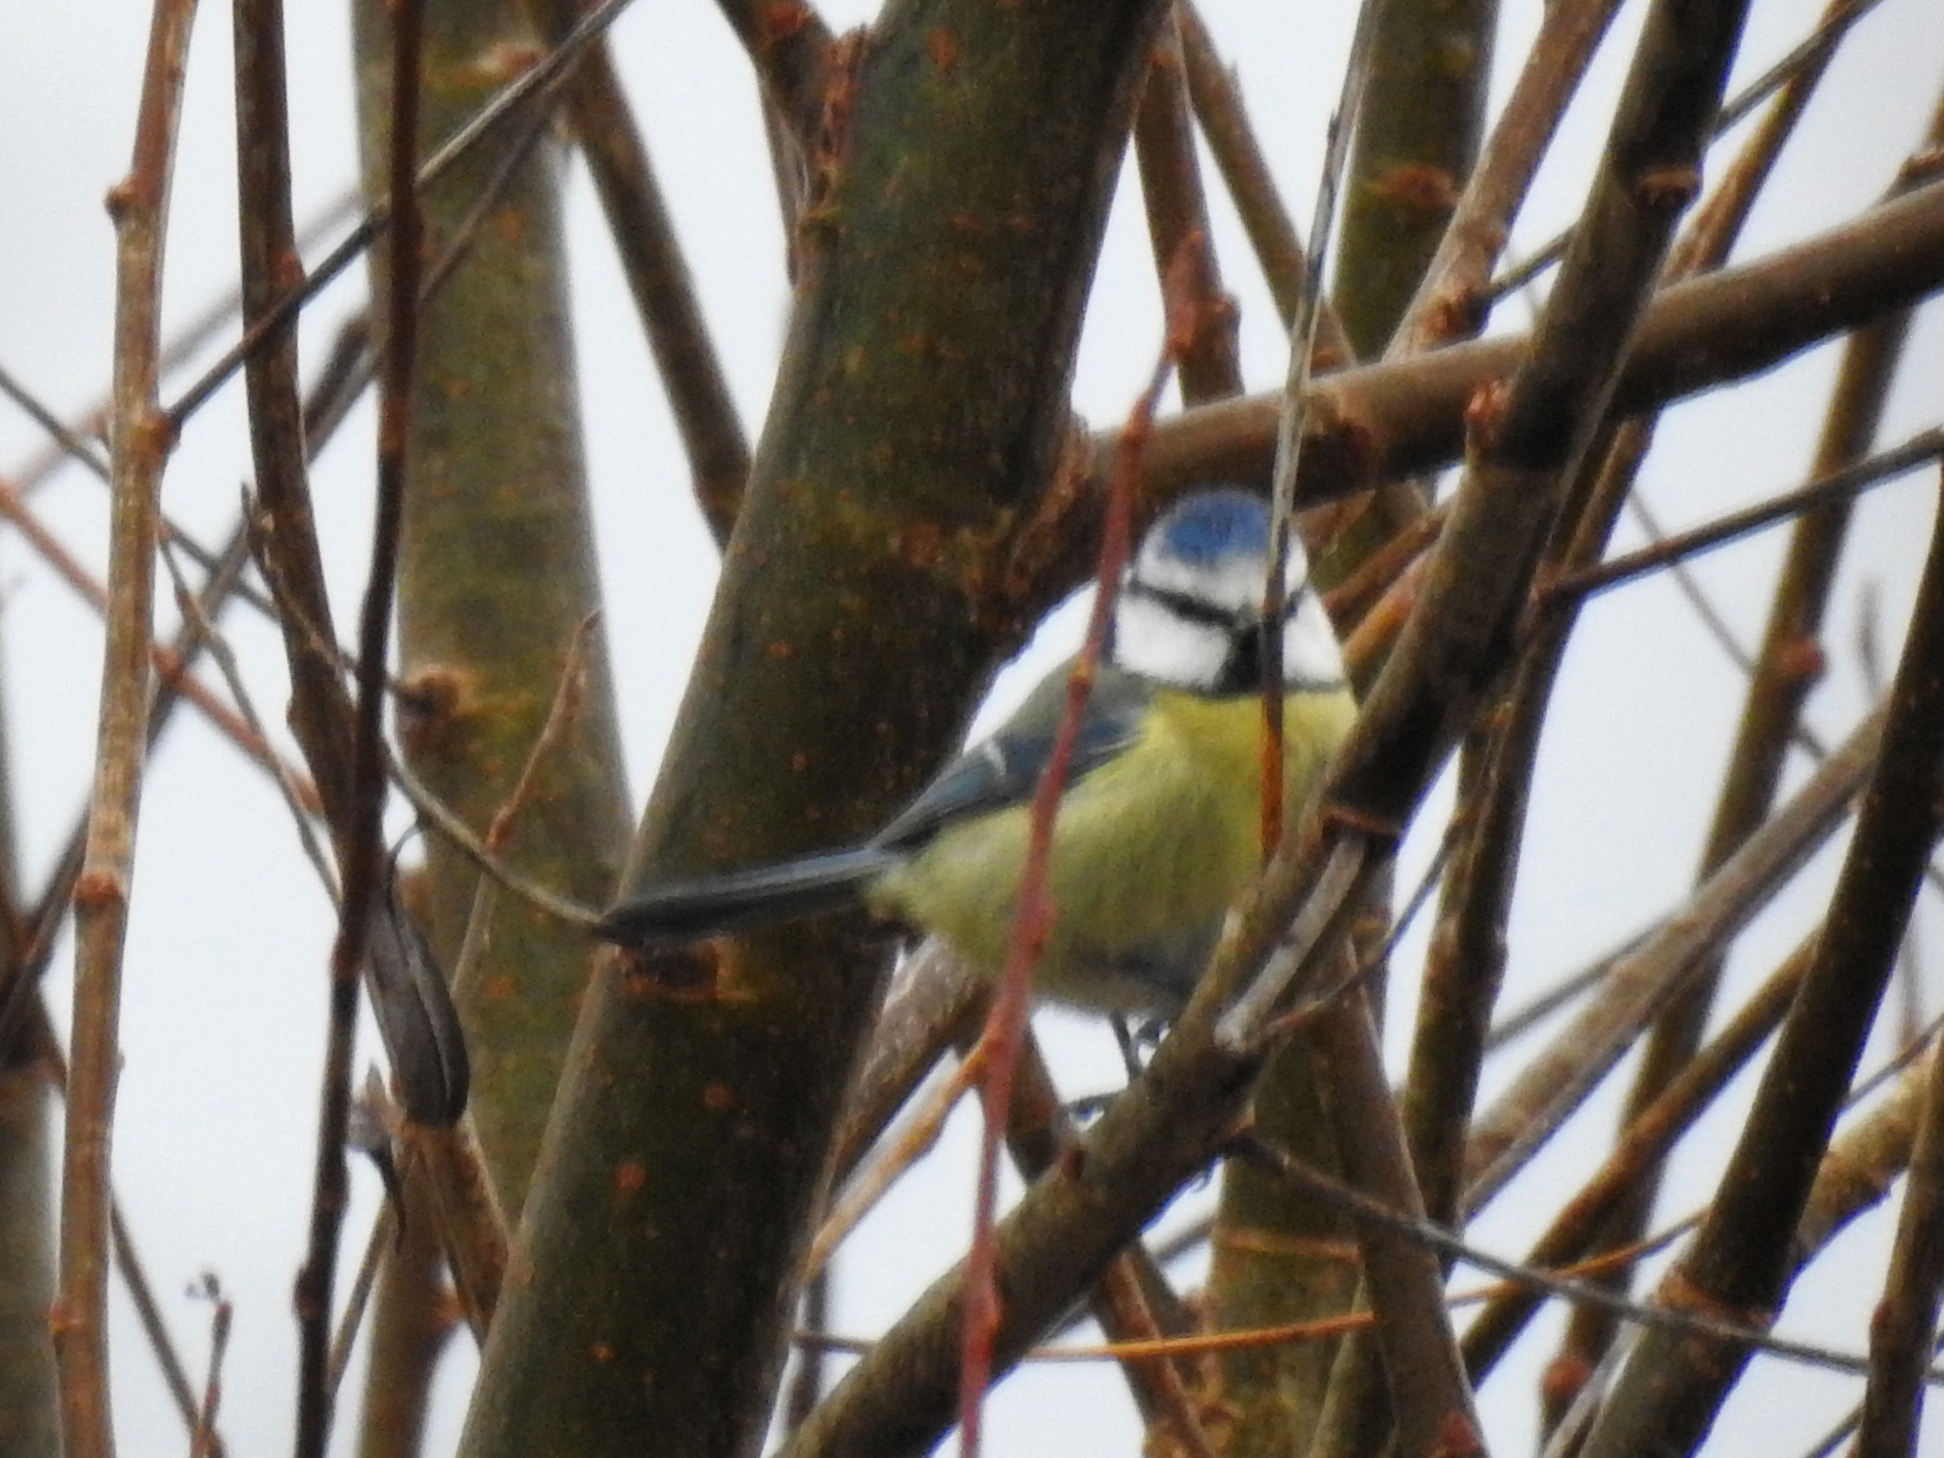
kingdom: Animalia
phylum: Chordata
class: Aves
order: Passeriformes
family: Paridae
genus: Cyanistes
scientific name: Cyanistes caeruleus
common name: Eurasian blue tit
